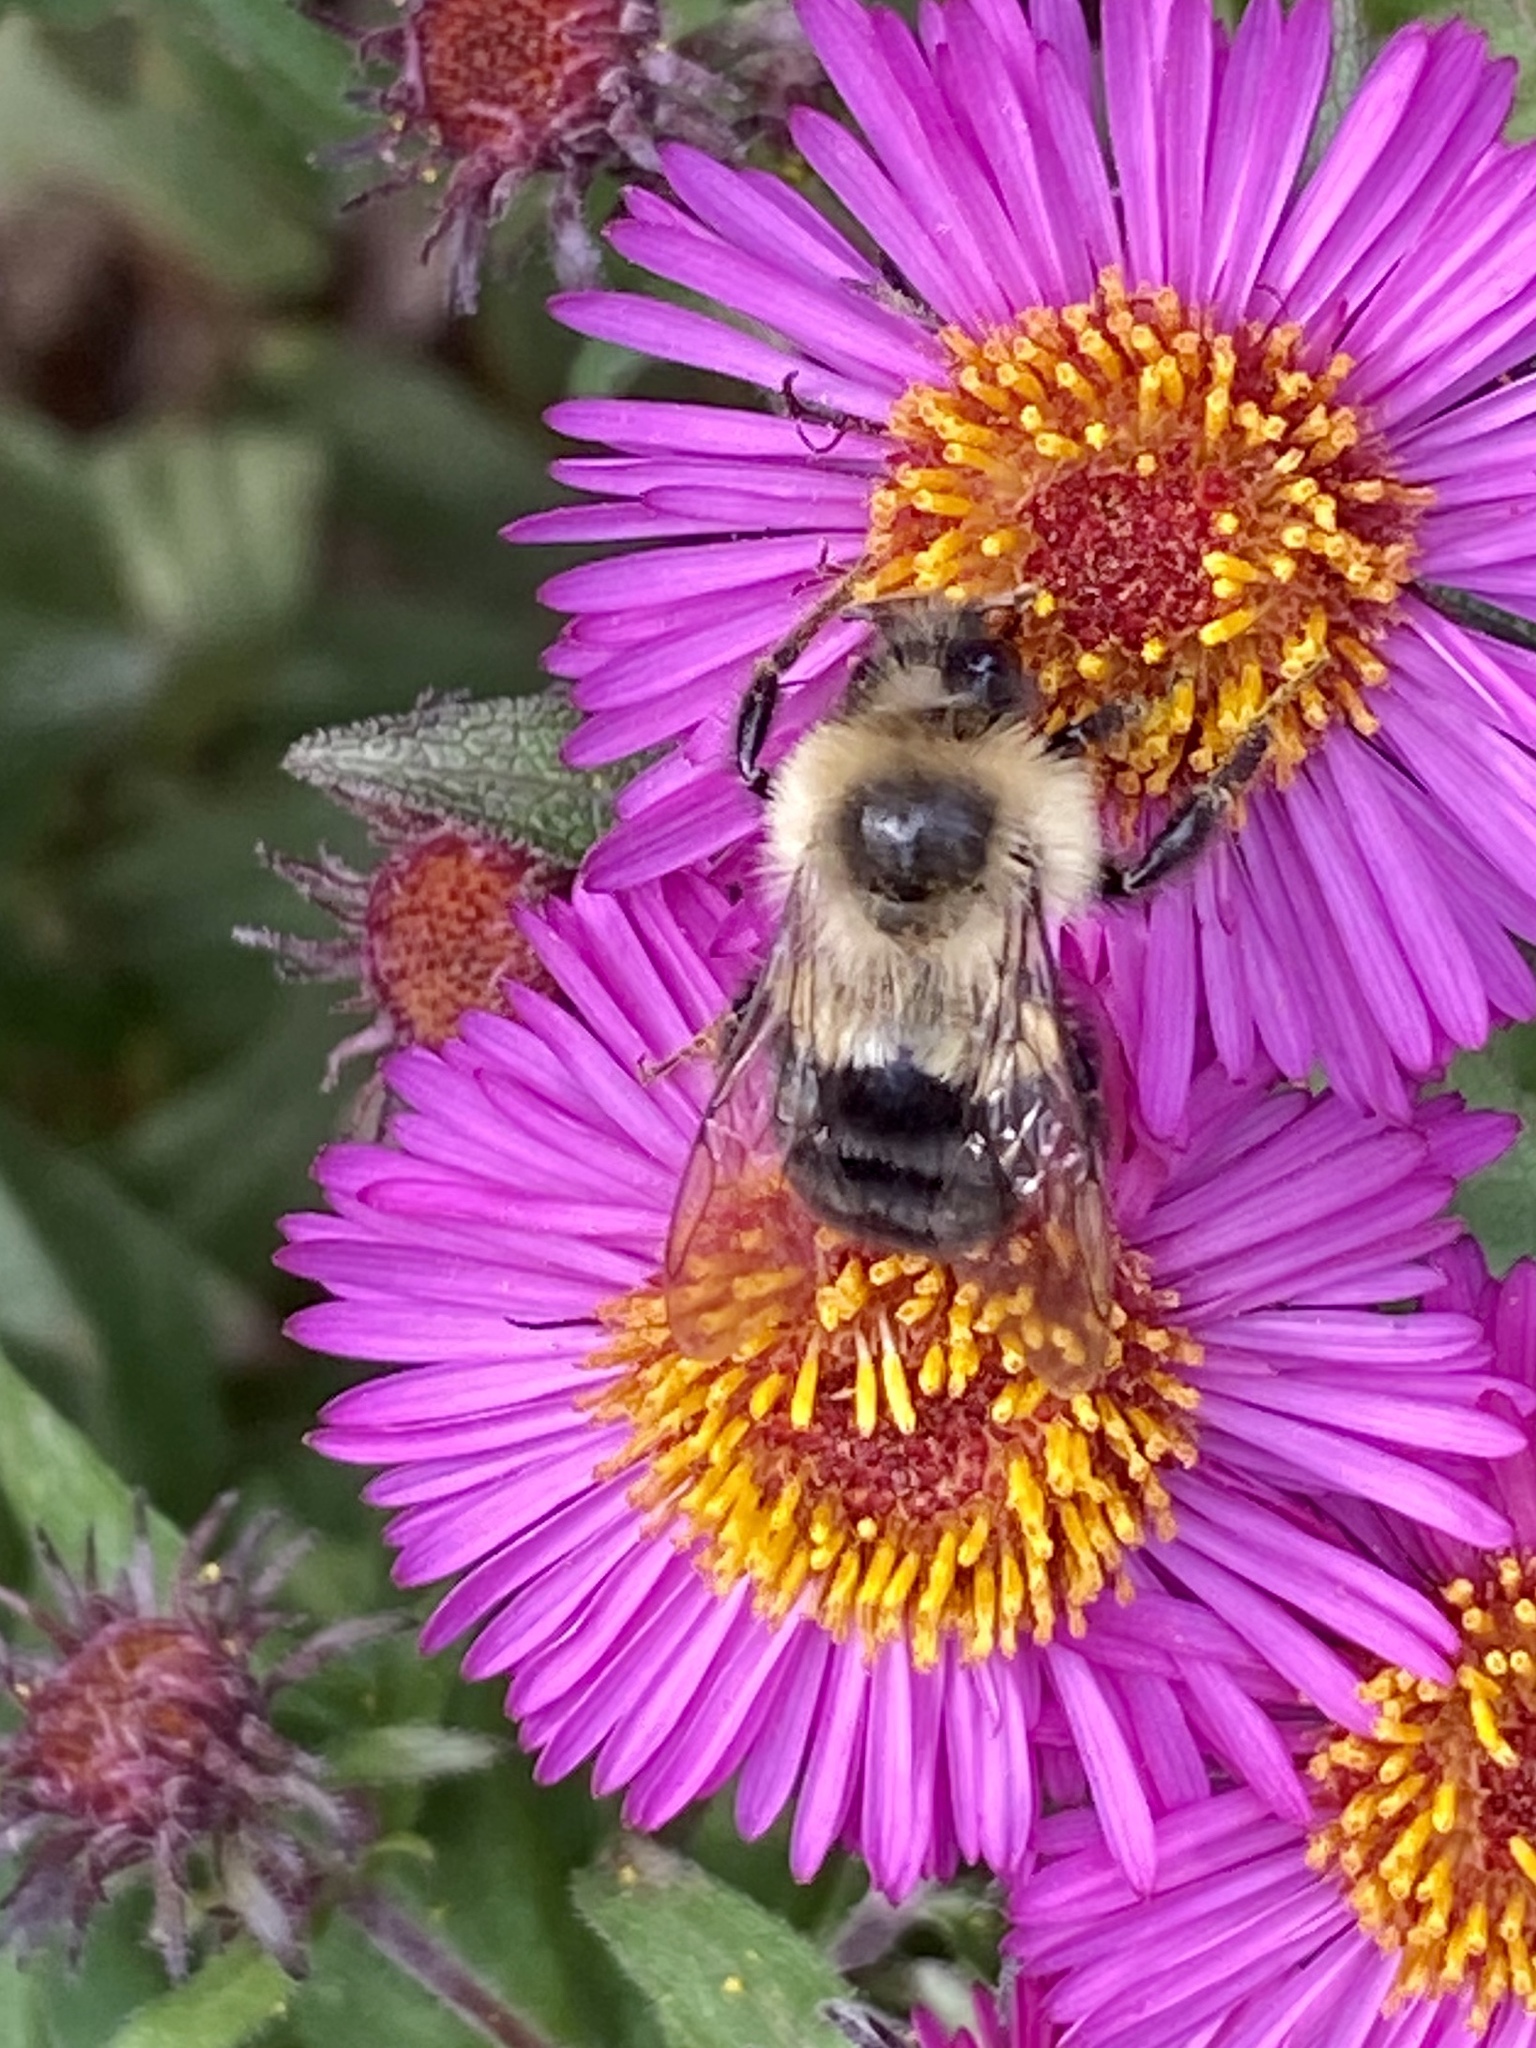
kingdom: Animalia
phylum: Arthropoda
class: Insecta
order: Hymenoptera
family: Apidae
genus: Bombus
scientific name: Bombus impatiens
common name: Common eastern bumble bee
